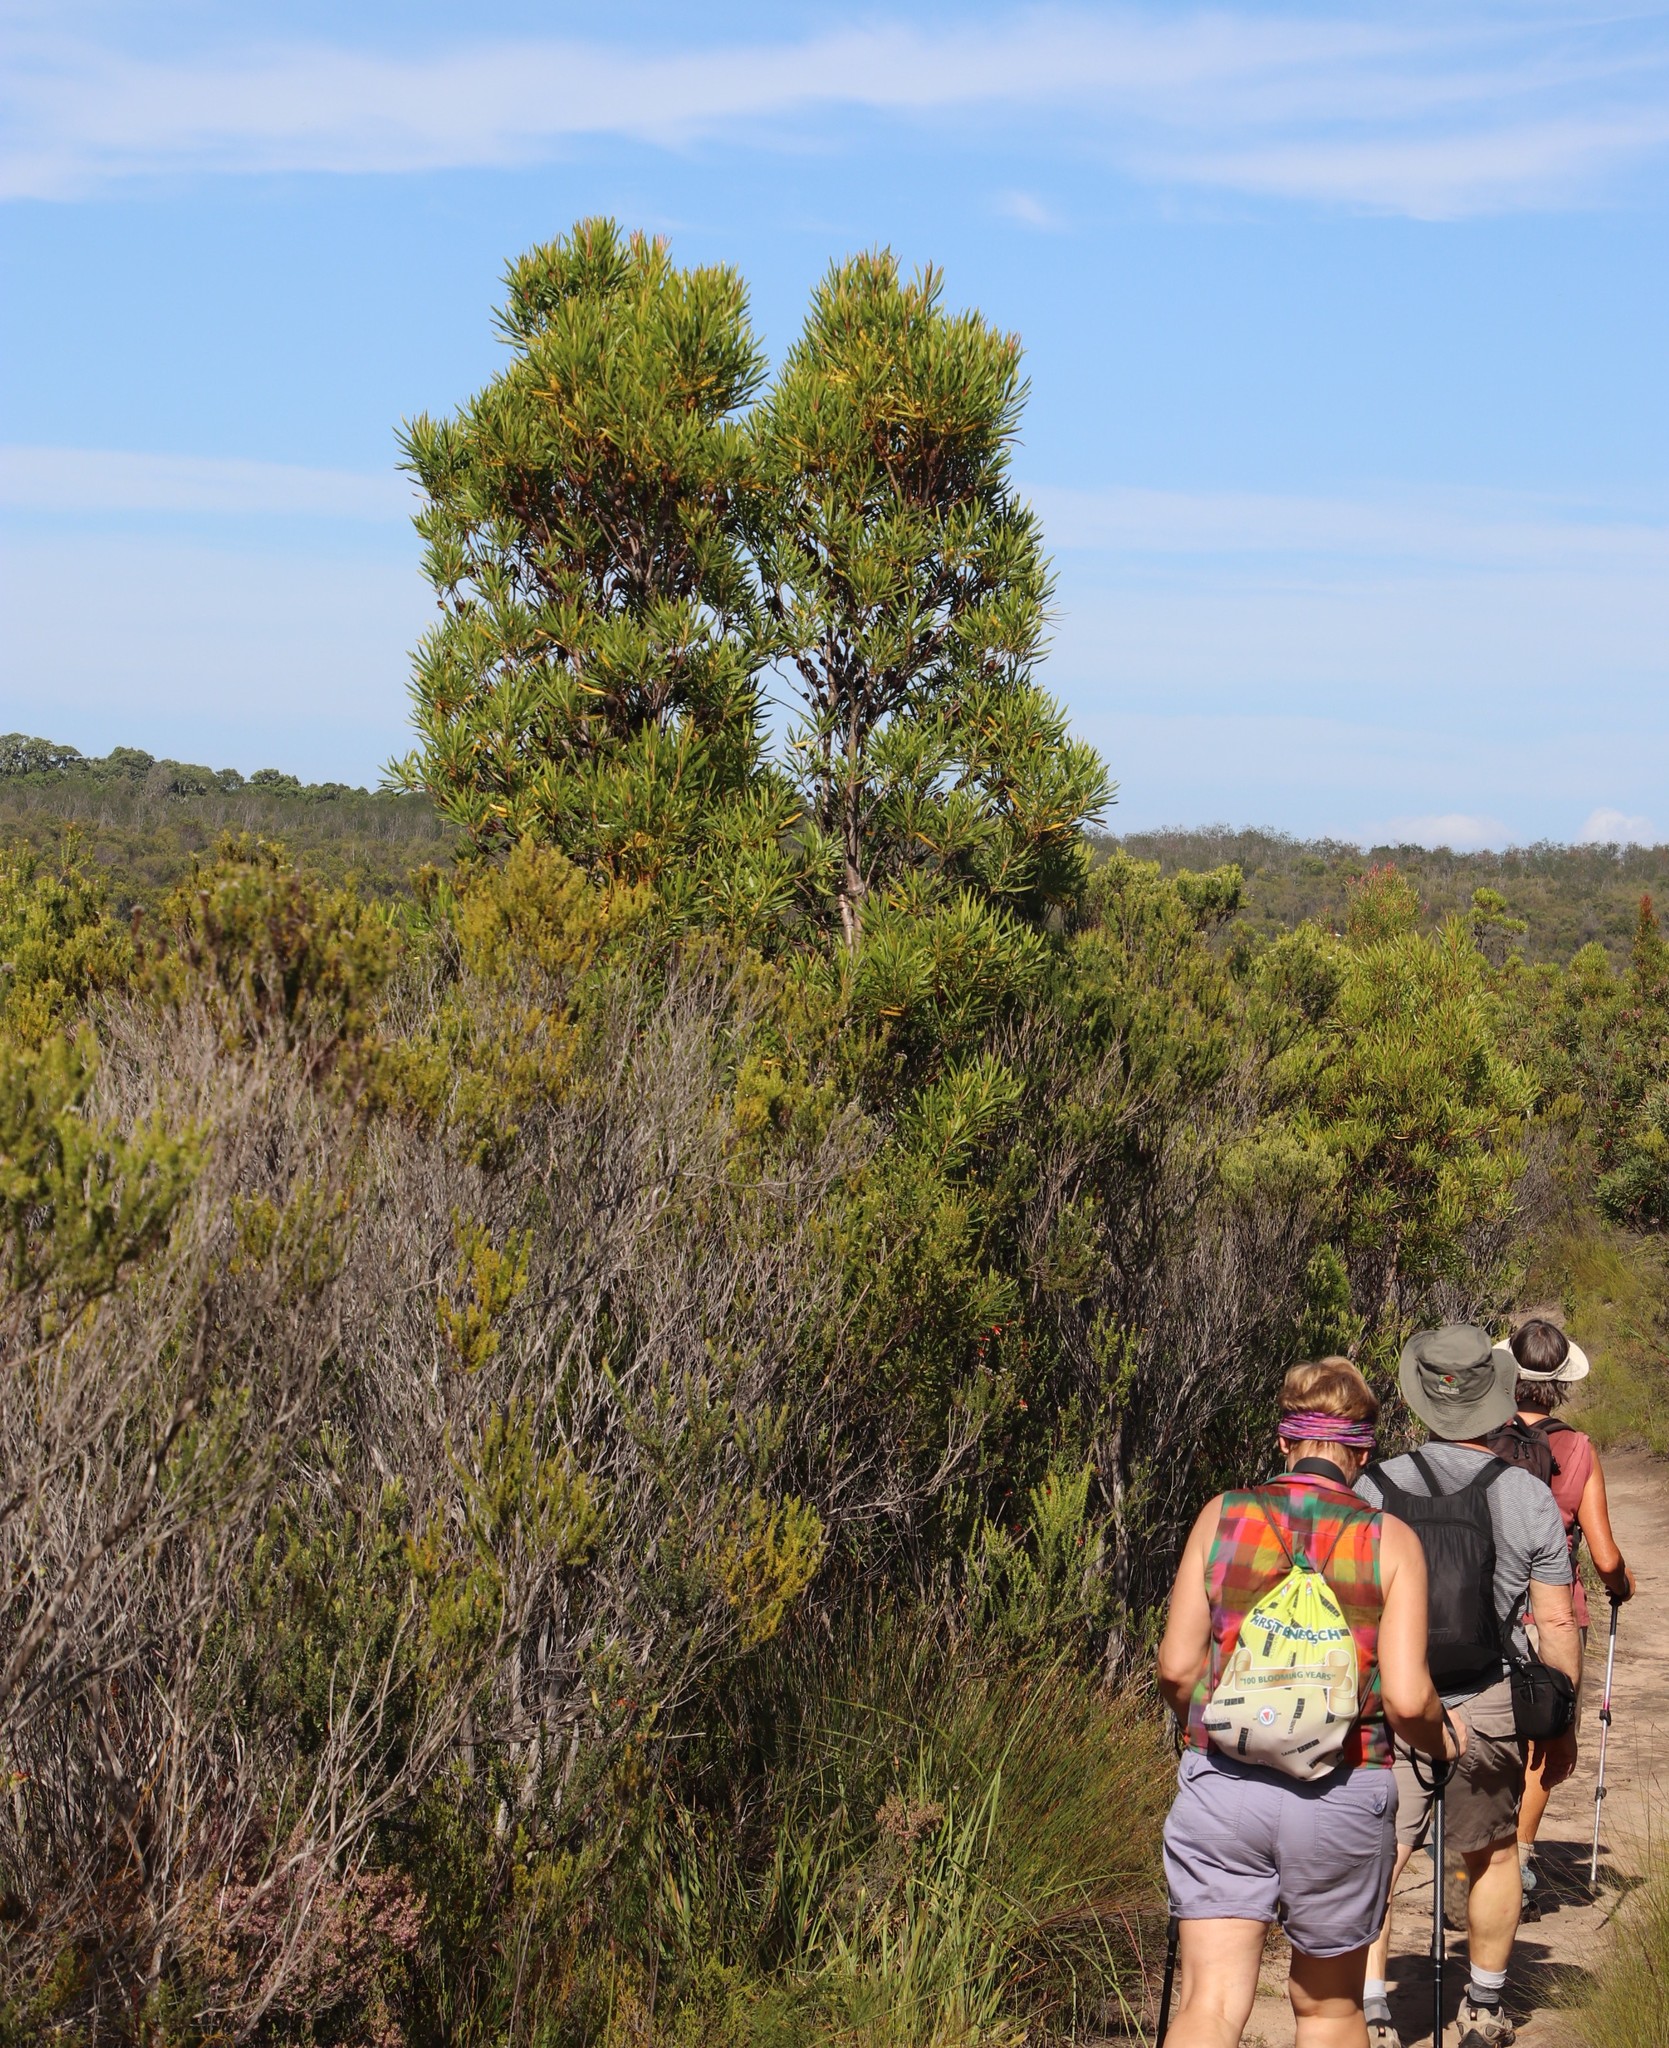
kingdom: Plantae
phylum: Tracheophyta
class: Magnoliopsida
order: Proteales
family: Proteaceae
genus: Leucadendron
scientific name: Leucadendron eucalyptifolium
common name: Gum-leaved conebush
